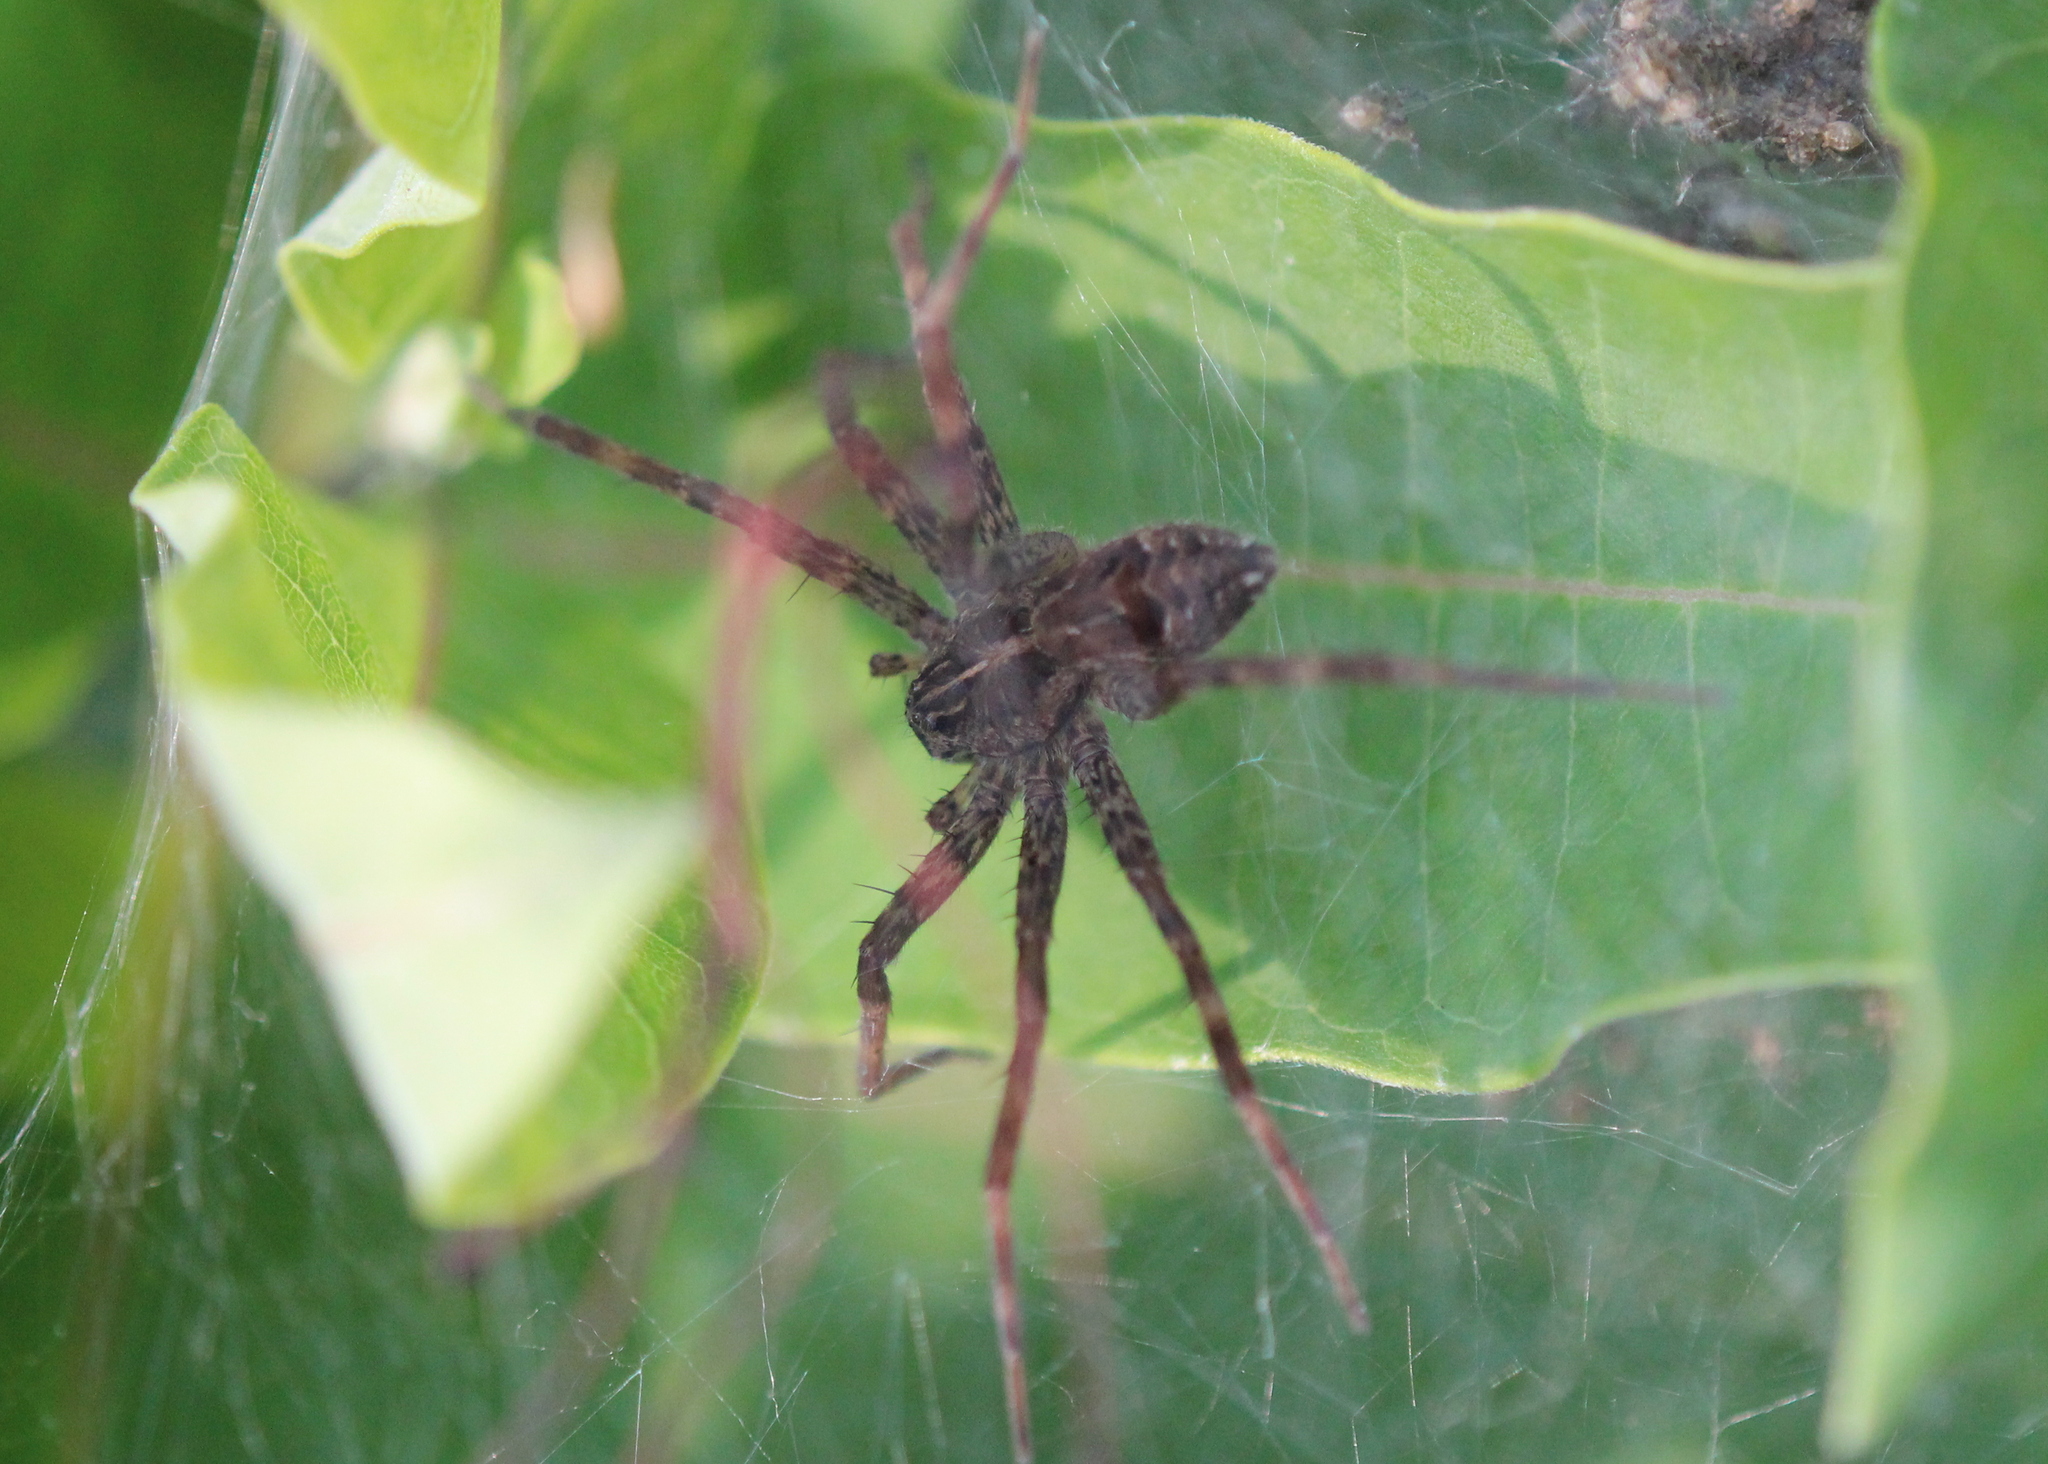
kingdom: Animalia
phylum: Arthropoda
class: Arachnida
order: Araneae
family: Pisauridae
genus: Dolomedes
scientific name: Dolomedes scriptus
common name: Striped fishing spider
